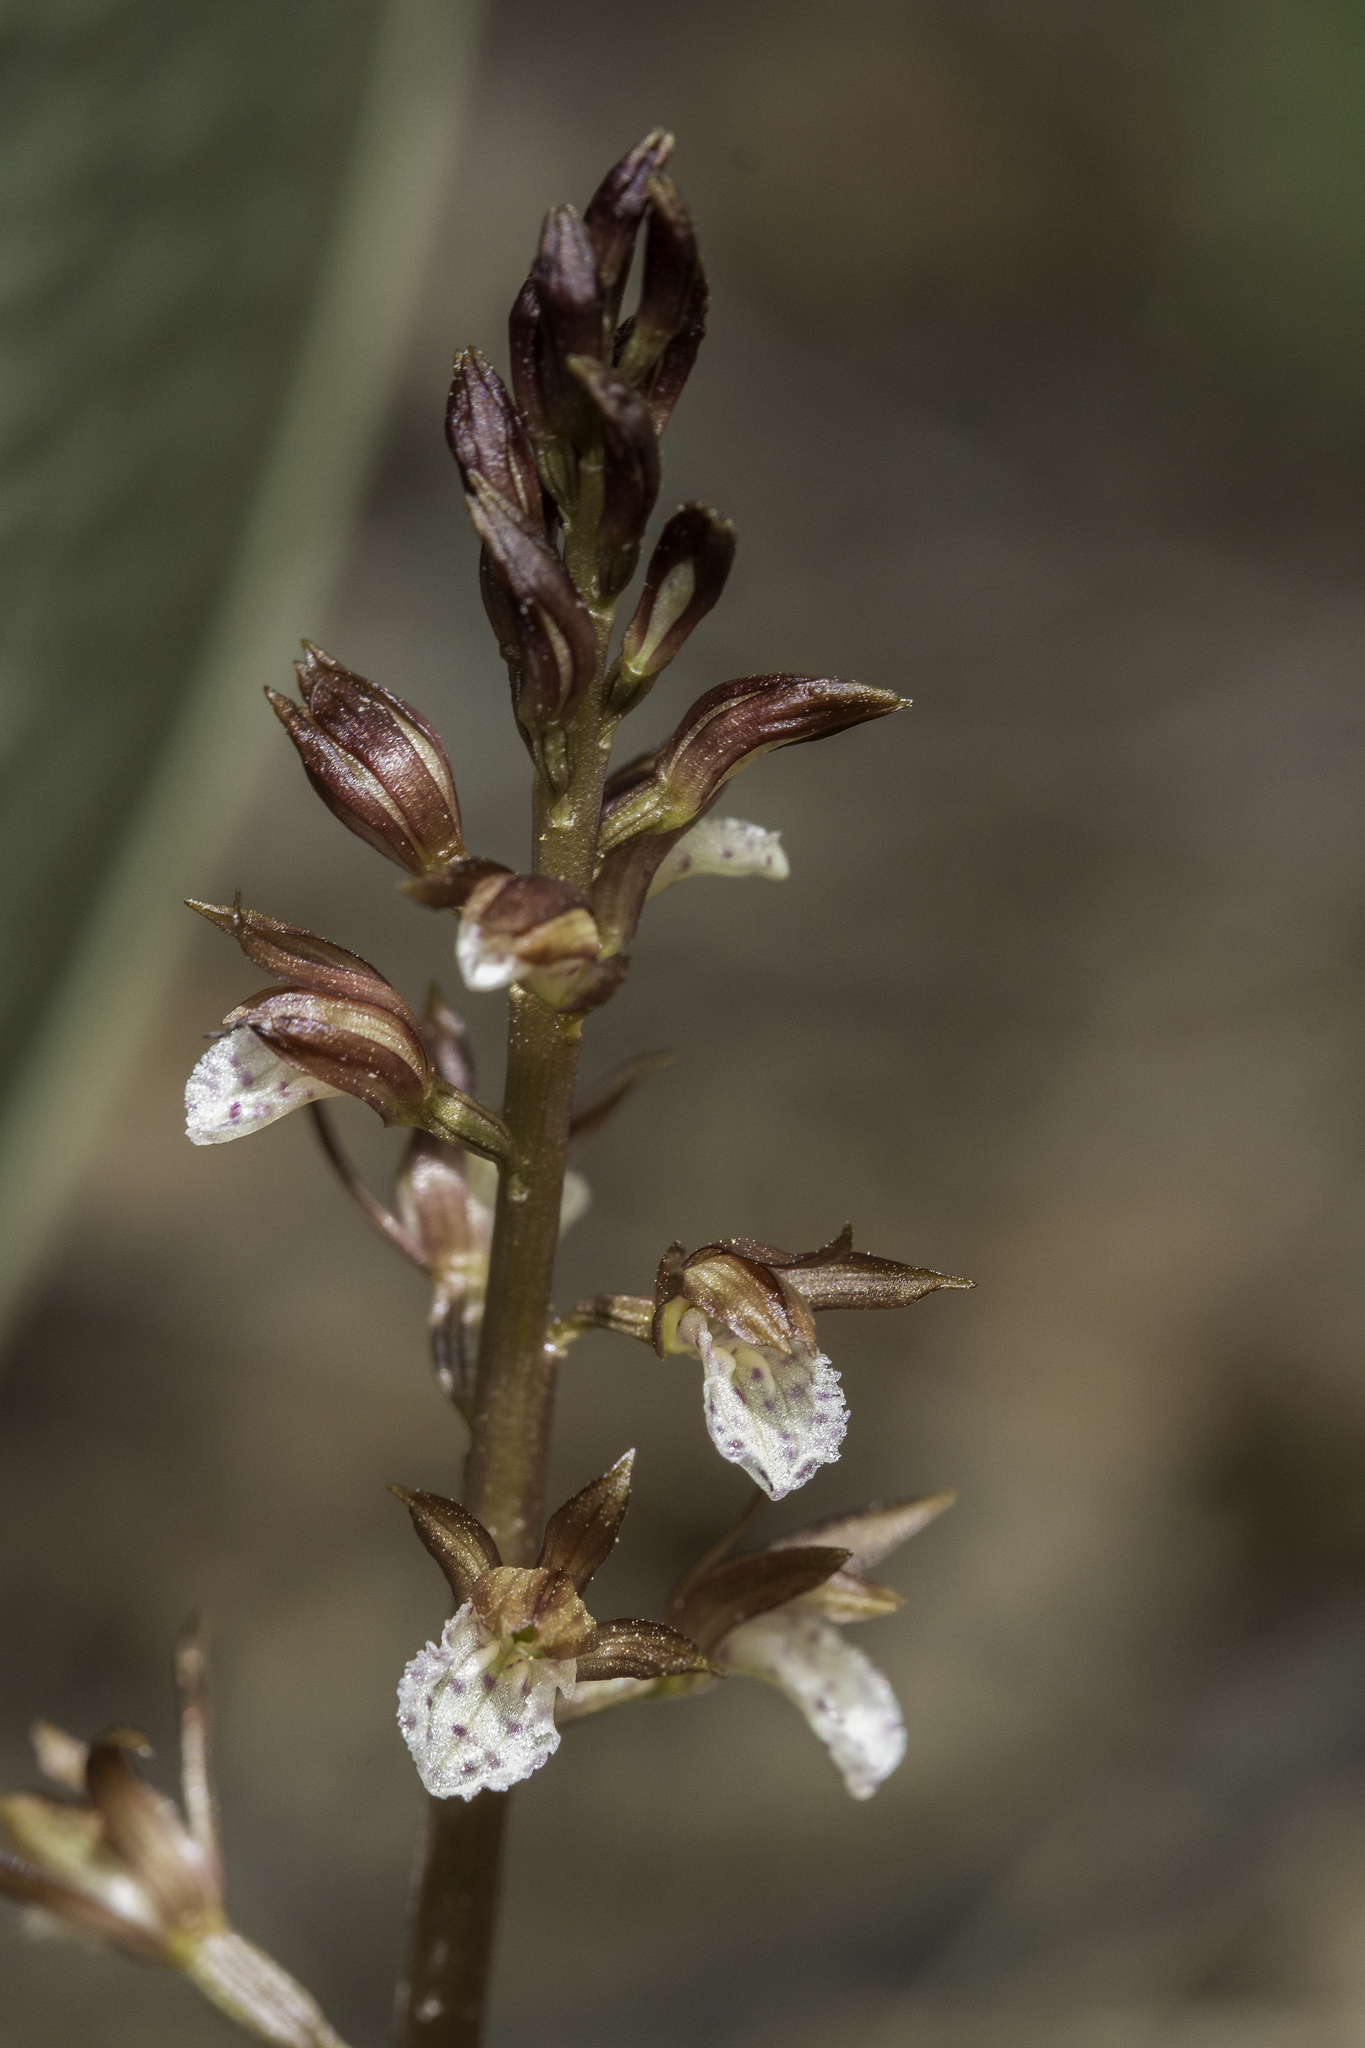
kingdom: Plantae
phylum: Tracheophyta
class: Liliopsida
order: Asparagales
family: Orchidaceae
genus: Corallorhiza
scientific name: Corallorhiza wisteriana
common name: Spring coralroot
